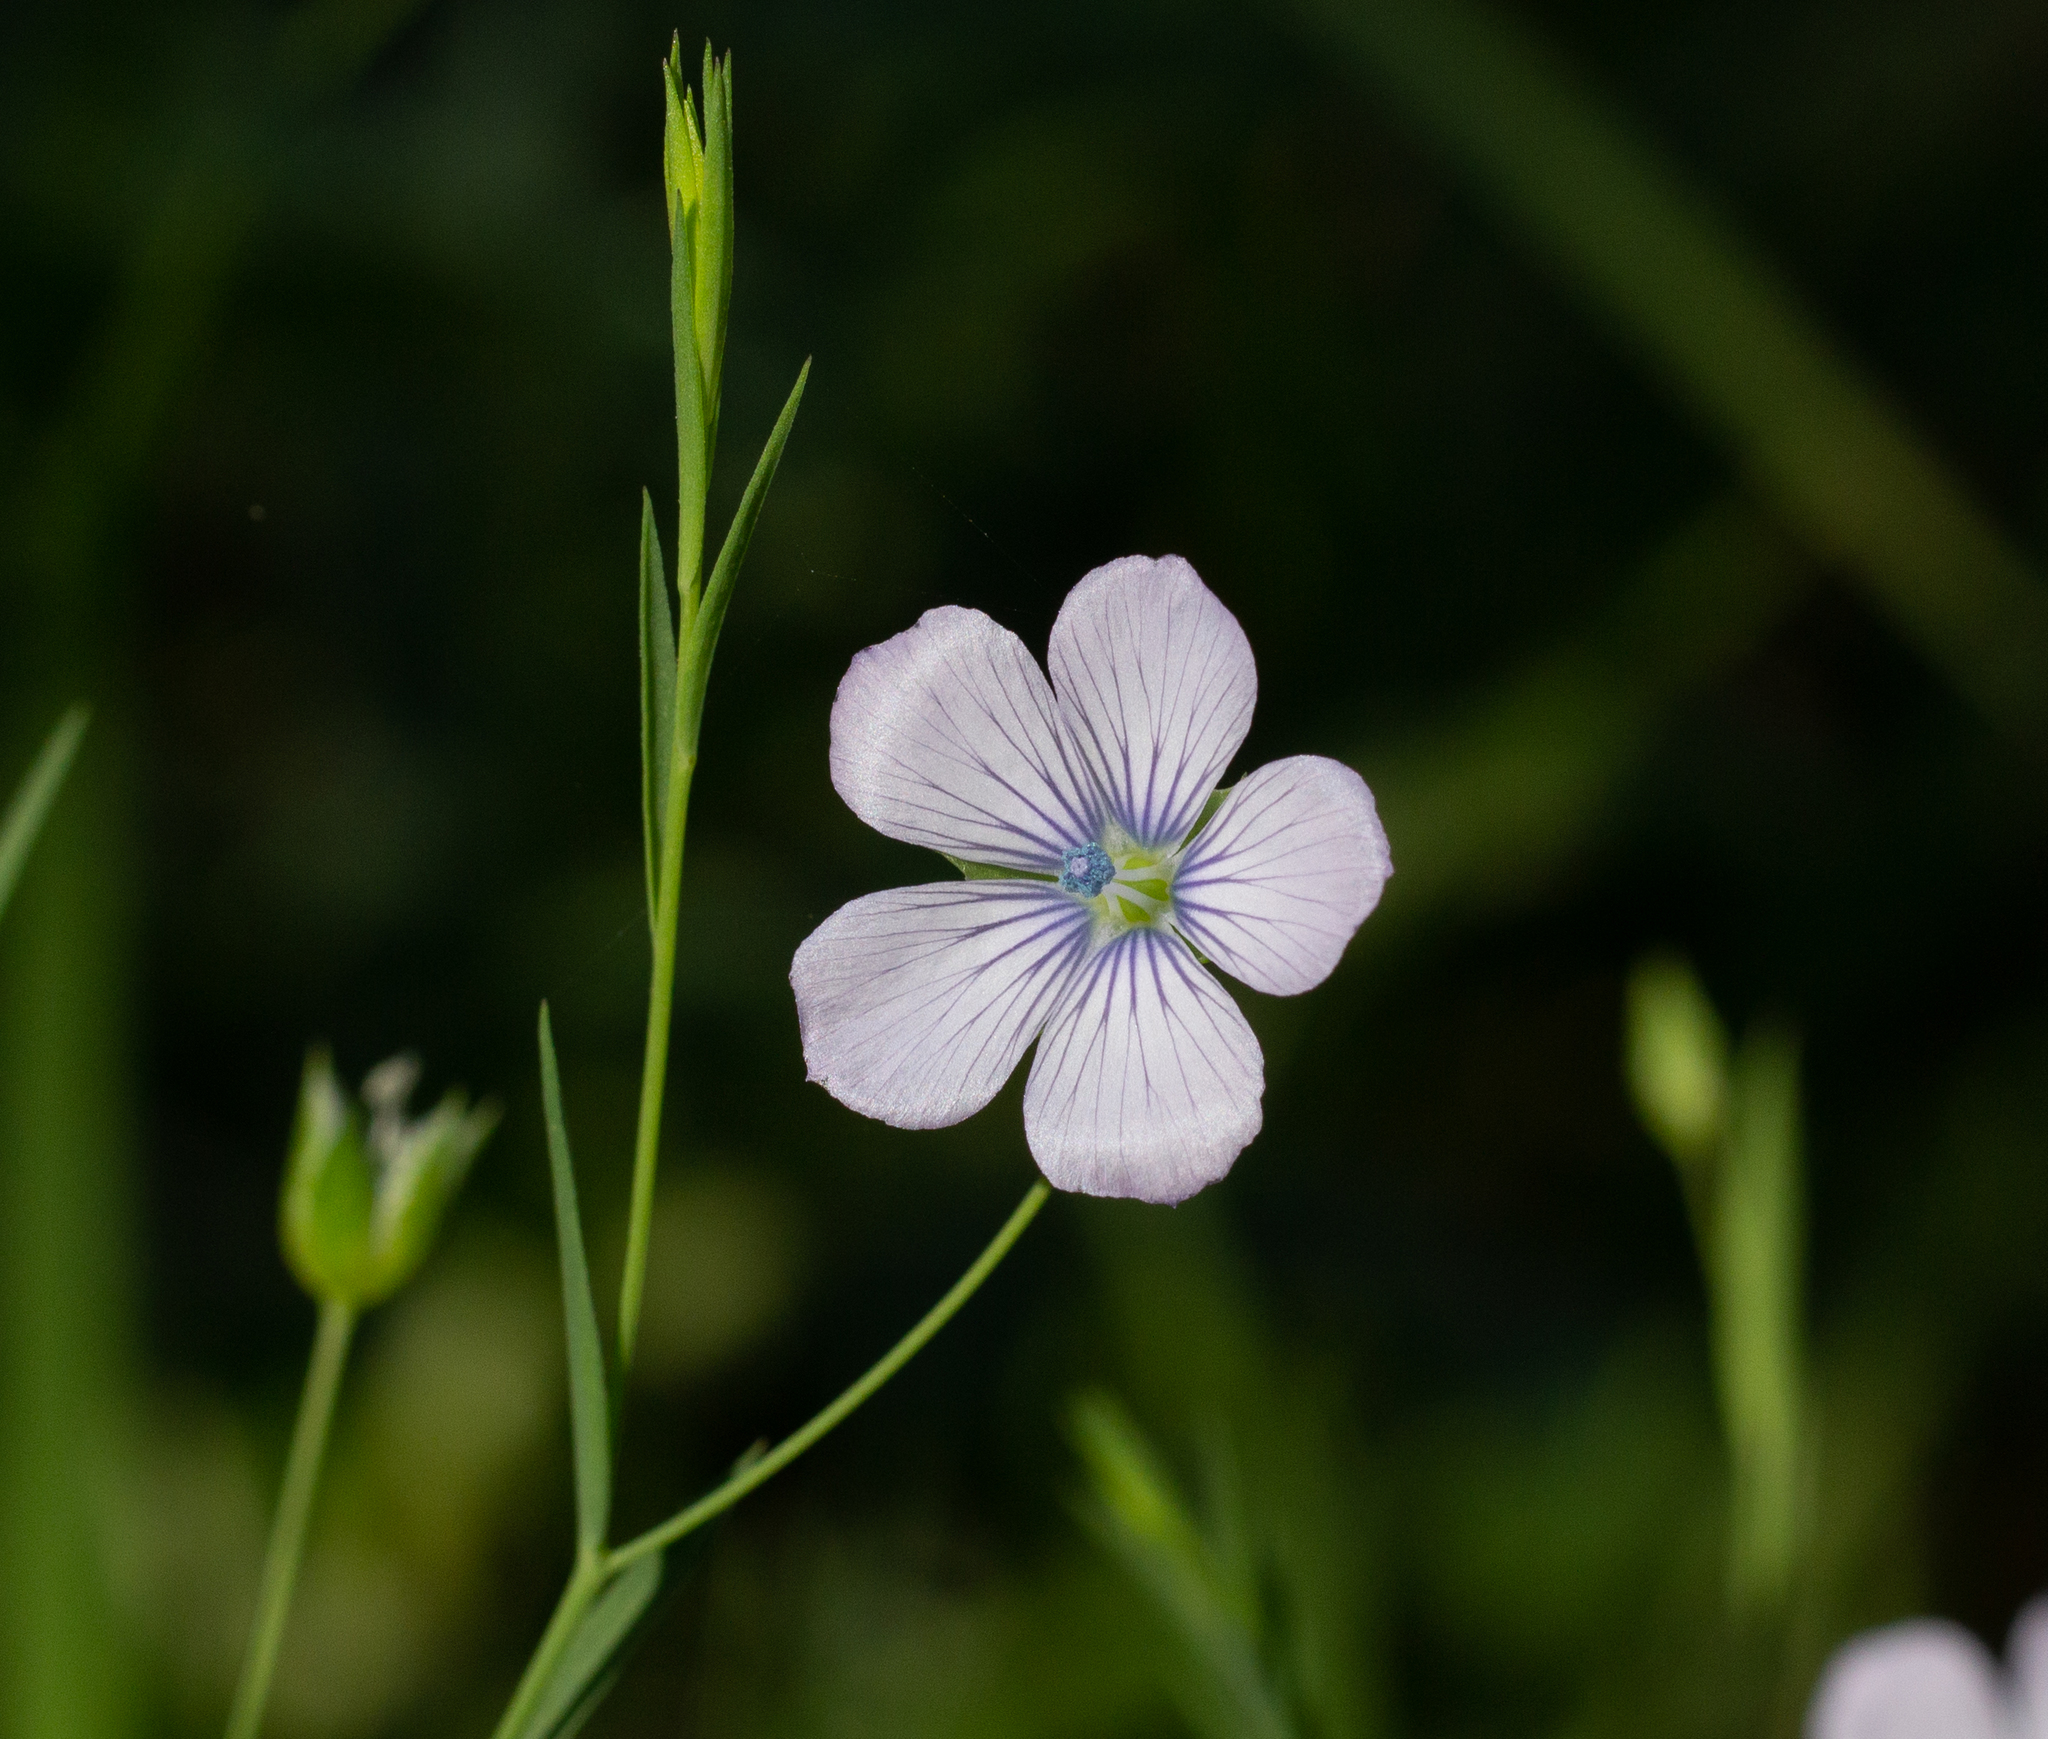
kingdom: Plantae
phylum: Tracheophyta
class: Magnoliopsida
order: Malpighiales
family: Linaceae
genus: Linum
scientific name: Linum bienne
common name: Pale flax
